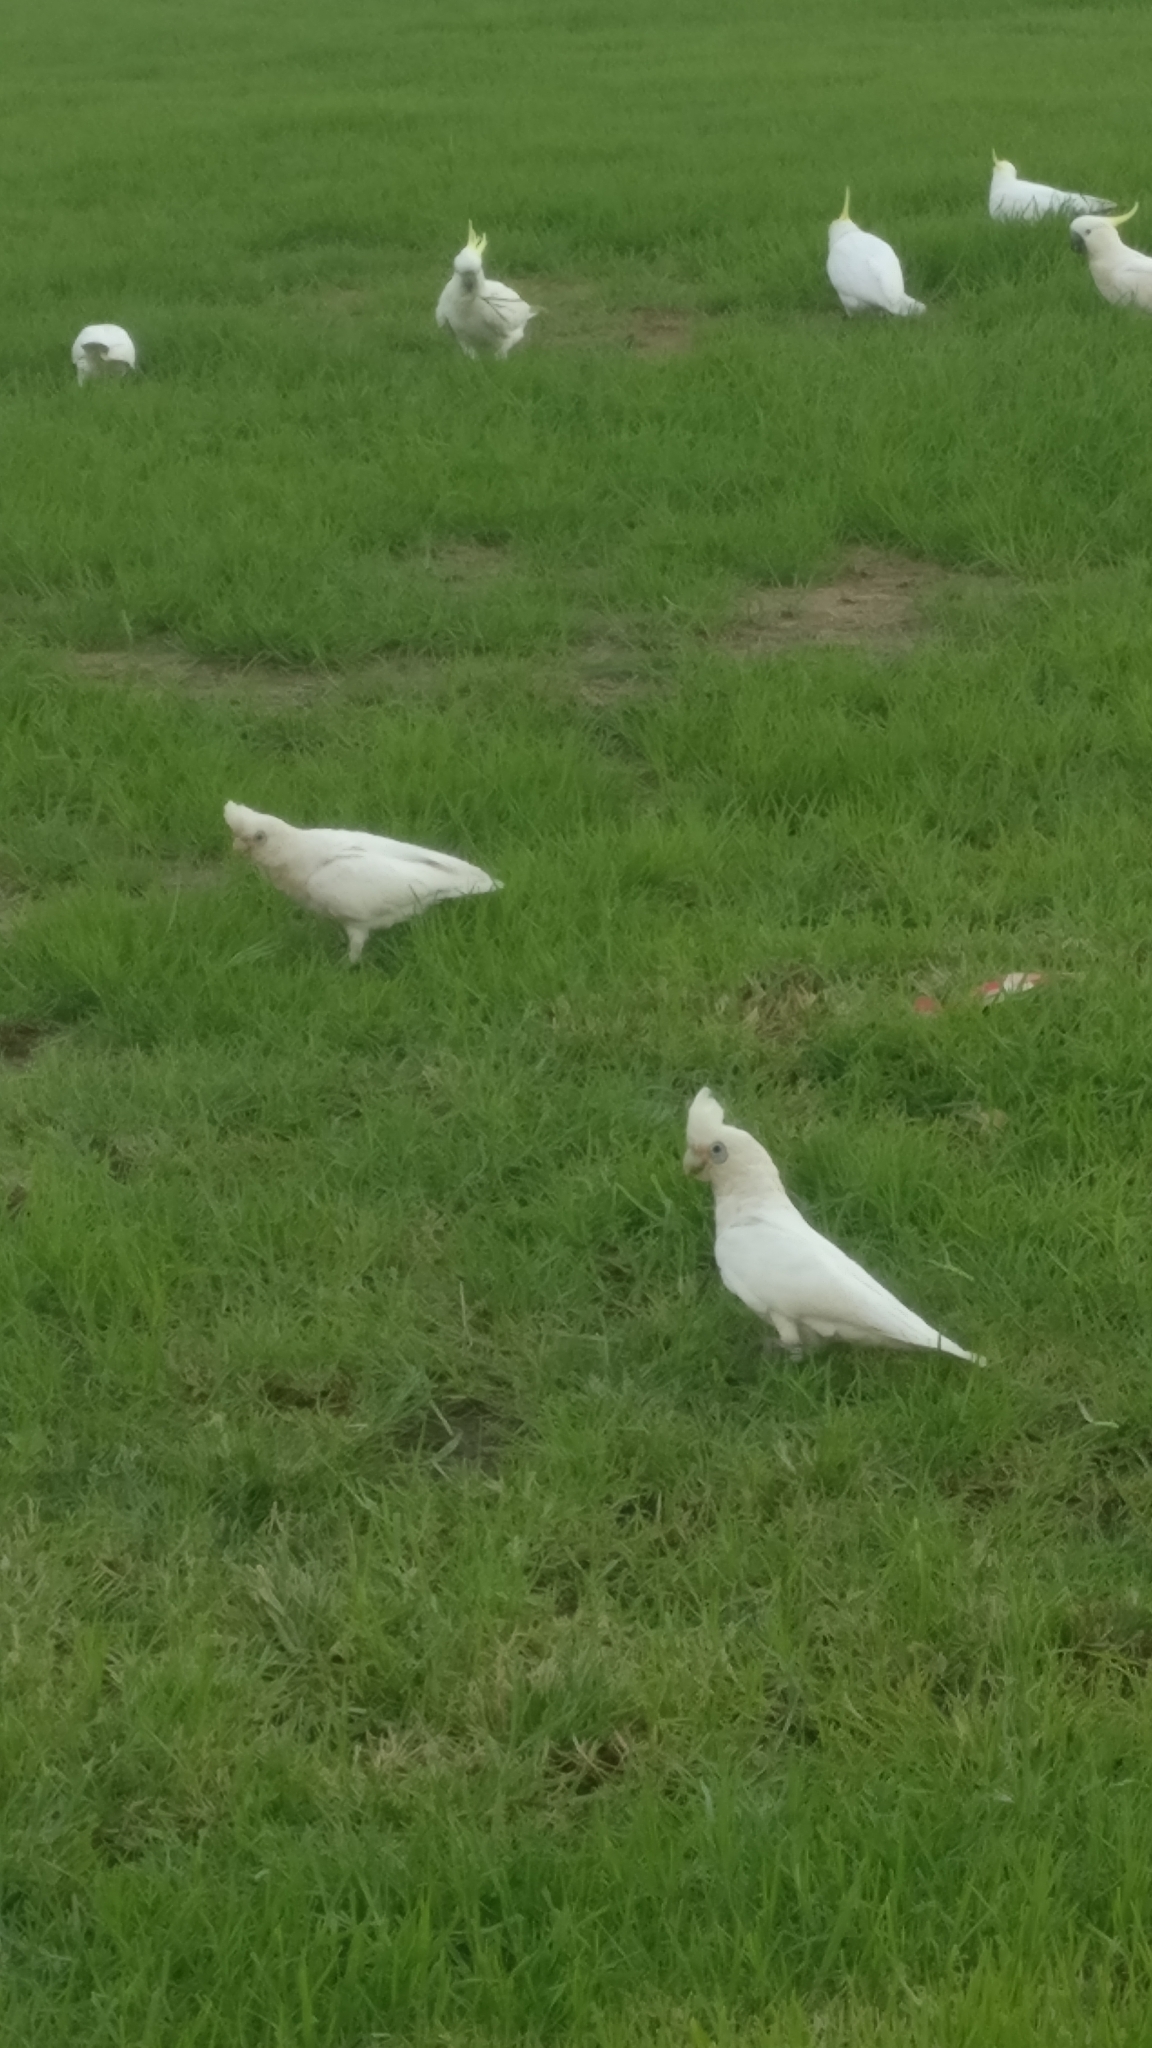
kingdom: Animalia
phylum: Chordata
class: Aves
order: Psittaciformes
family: Psittacidae
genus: Cacatua
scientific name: Cacatua sanguinea
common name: Little corella
